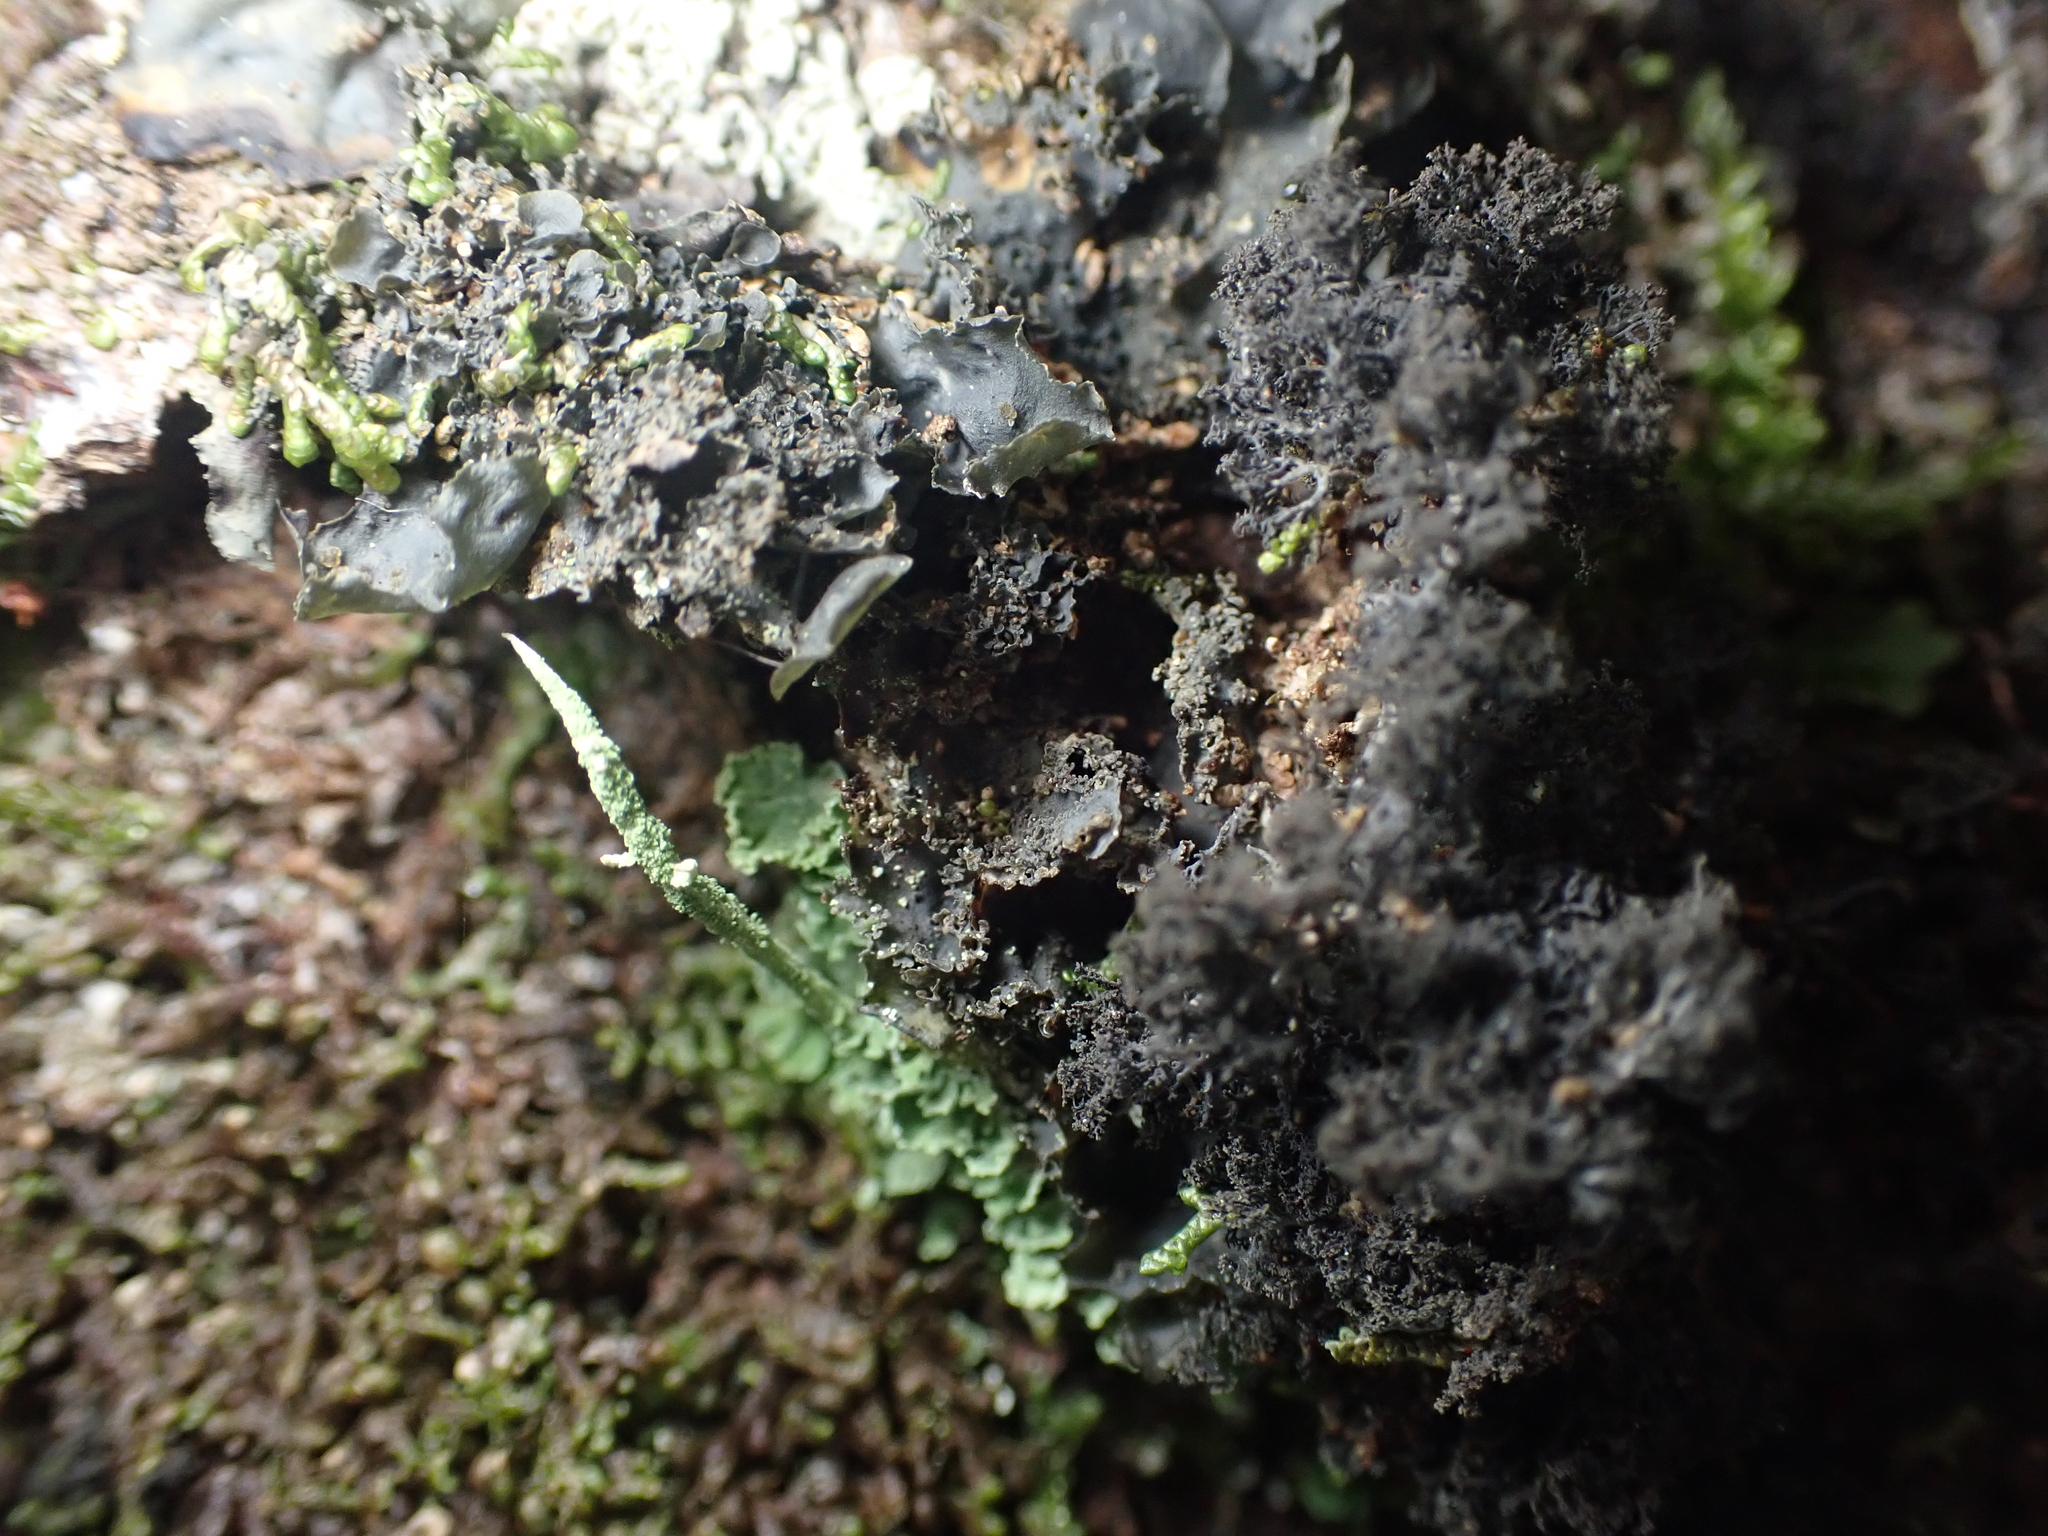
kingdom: Fungi
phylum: Ascomycota
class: Lecanoromycetes
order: Peltigerales
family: Lobariaceae
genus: Sticta
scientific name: Sticta latifrons
